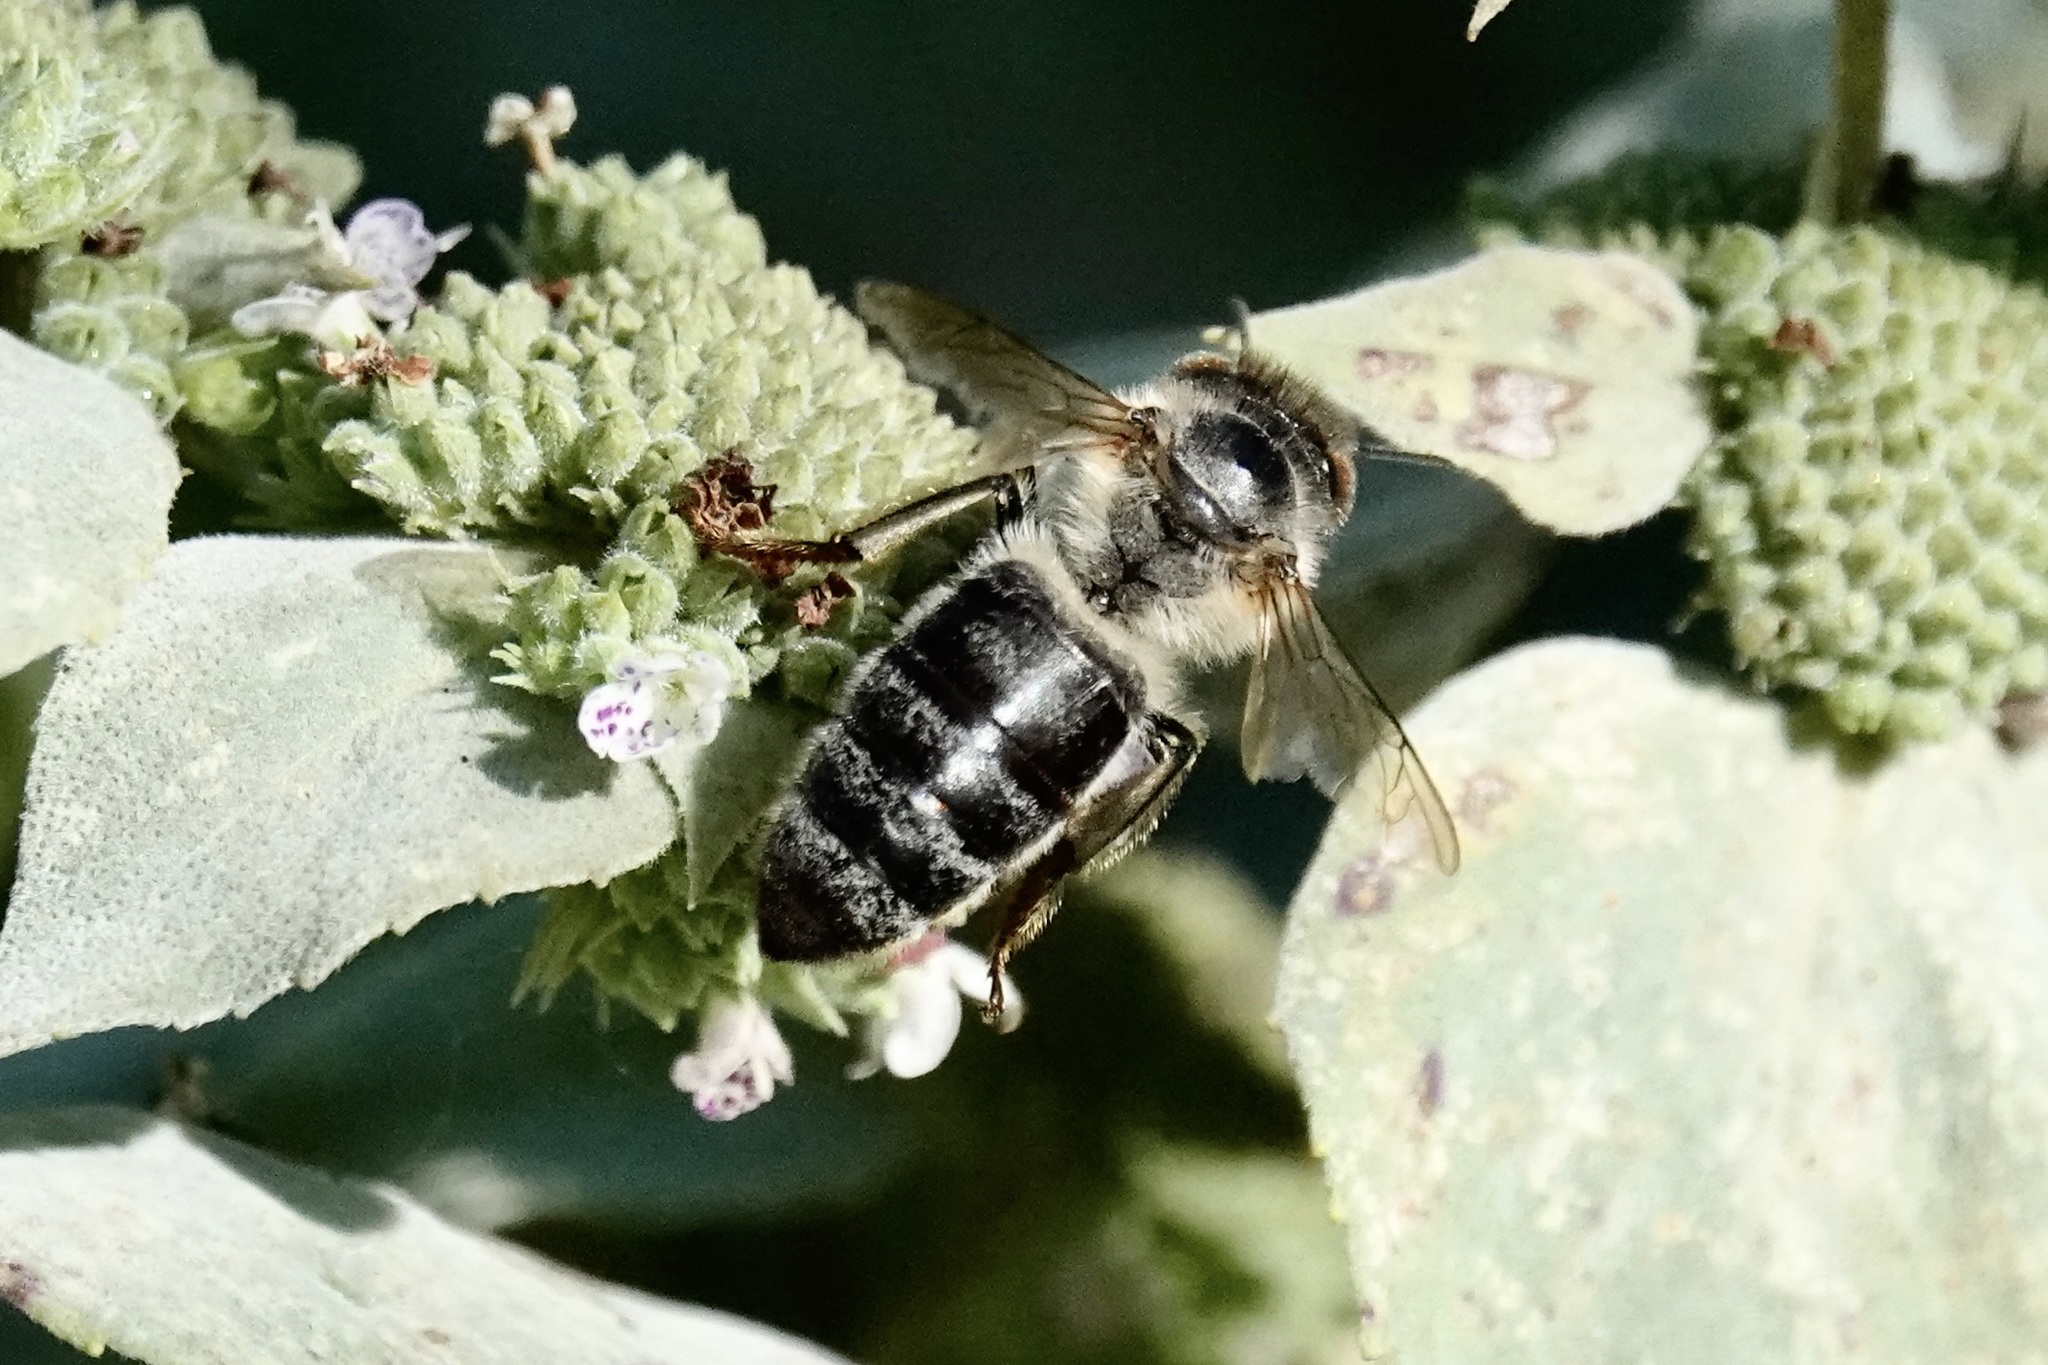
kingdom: Animalia
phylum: Arthropoda
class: Insecta
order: Hymenoptera
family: Apidae
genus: Apis
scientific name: Apis mellifera
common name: Honey bee
